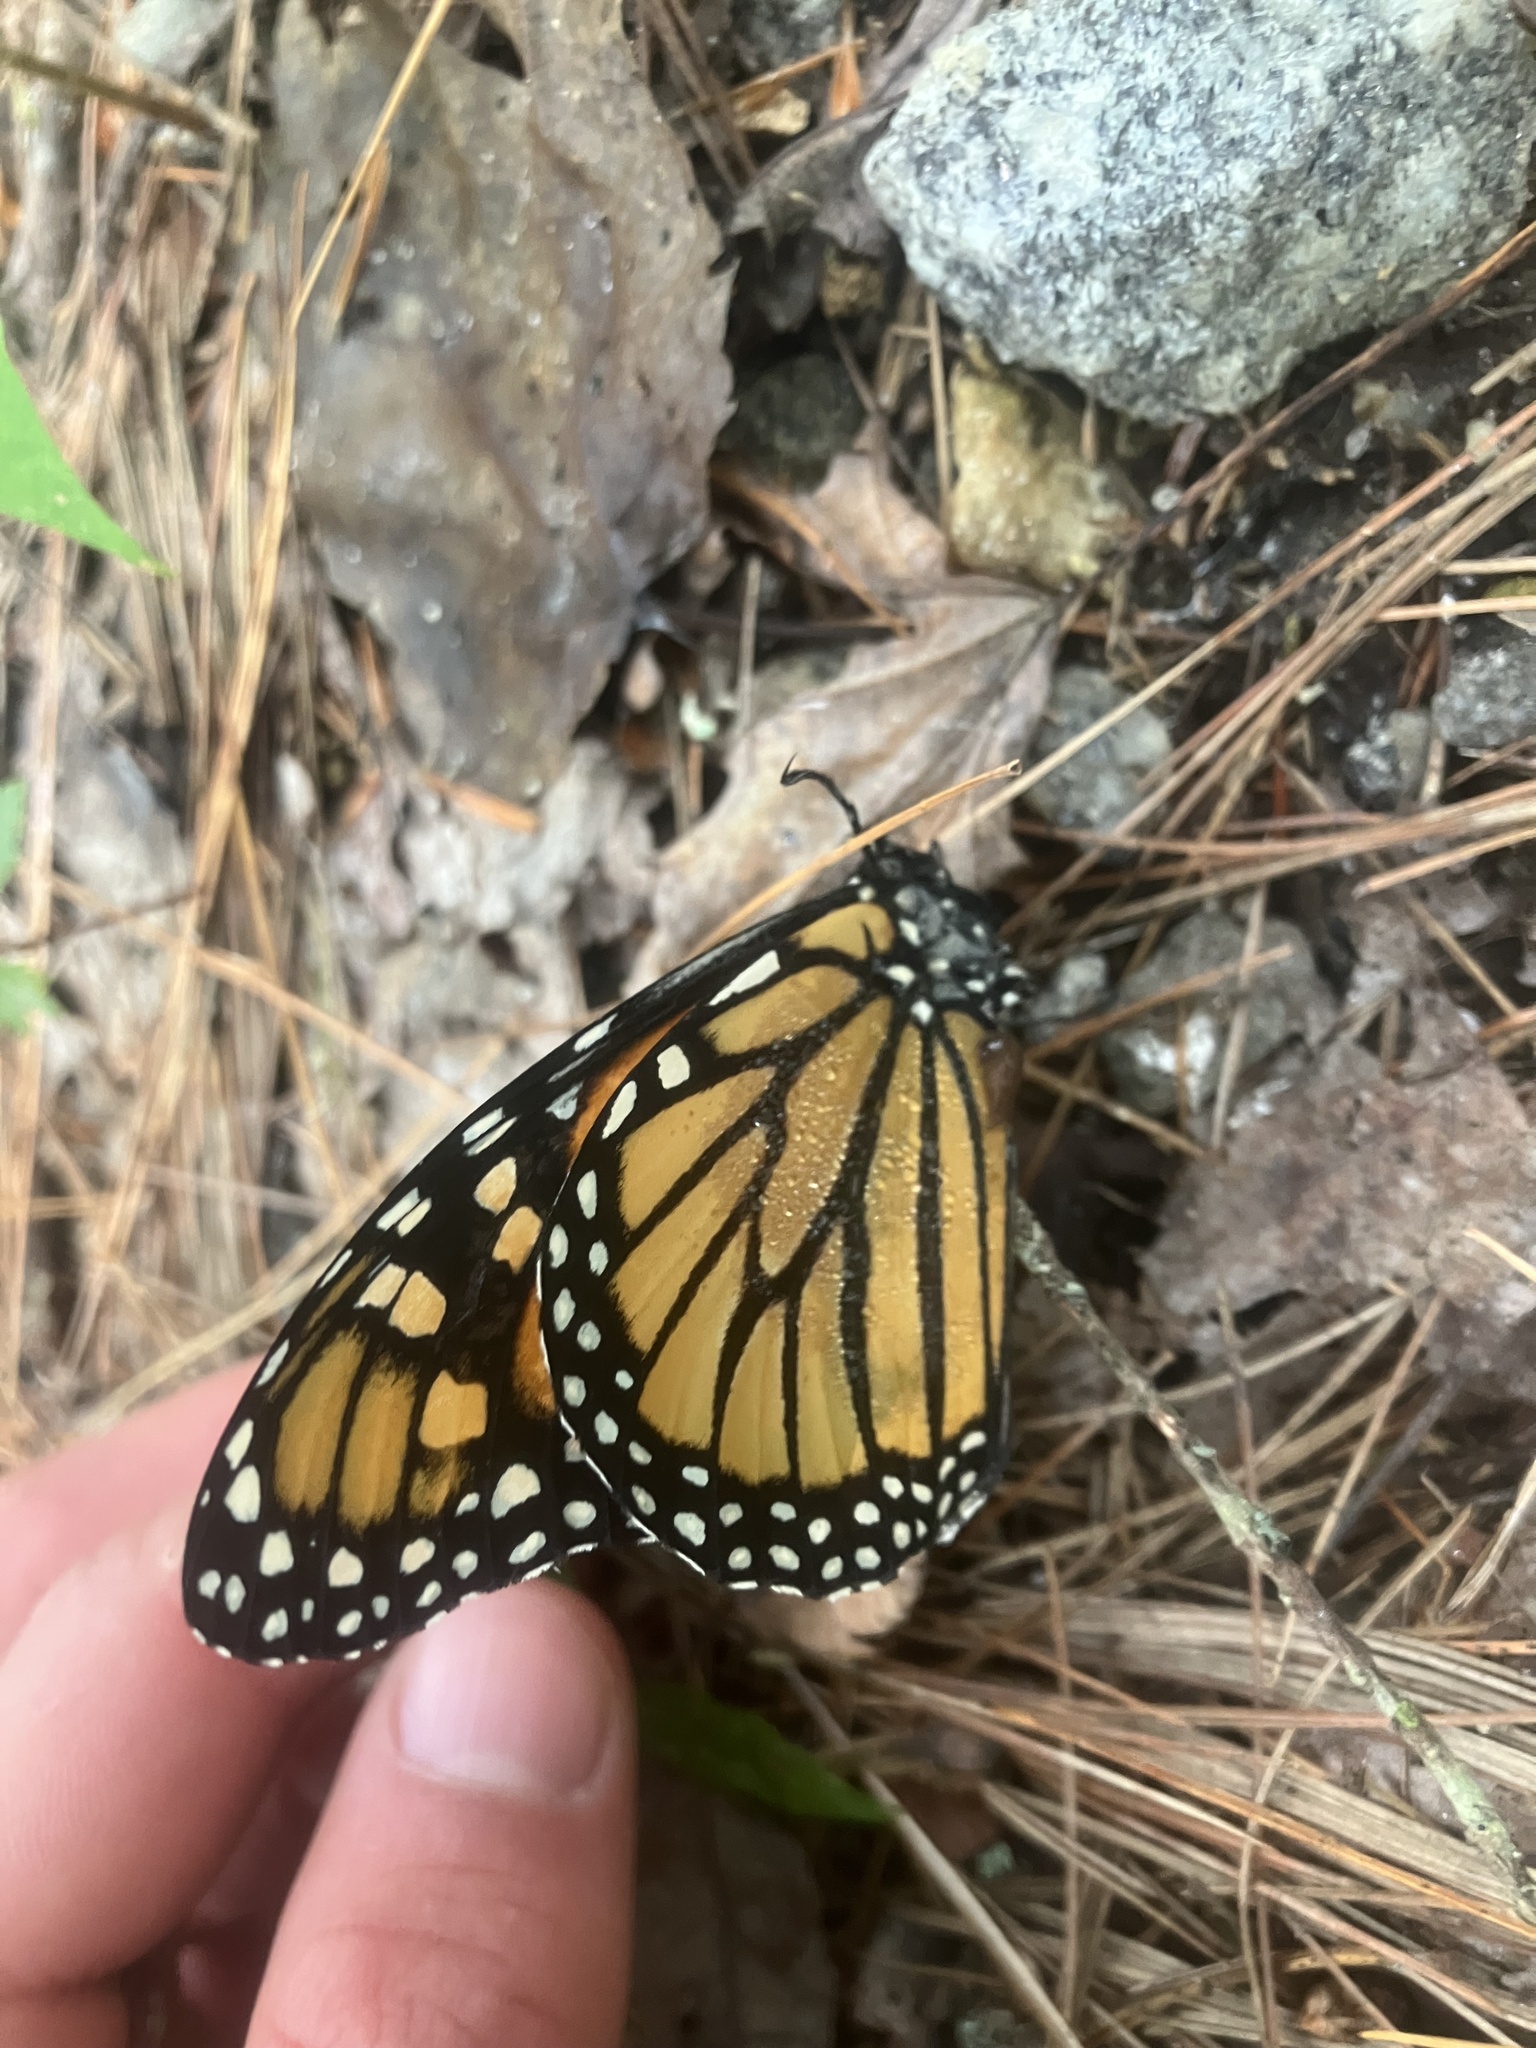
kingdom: Animalia
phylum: Arthropoda
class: Insecta
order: Lepidoptera
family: Nymphalidae
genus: Danaus
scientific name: Danaus plexippus
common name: Monarch
